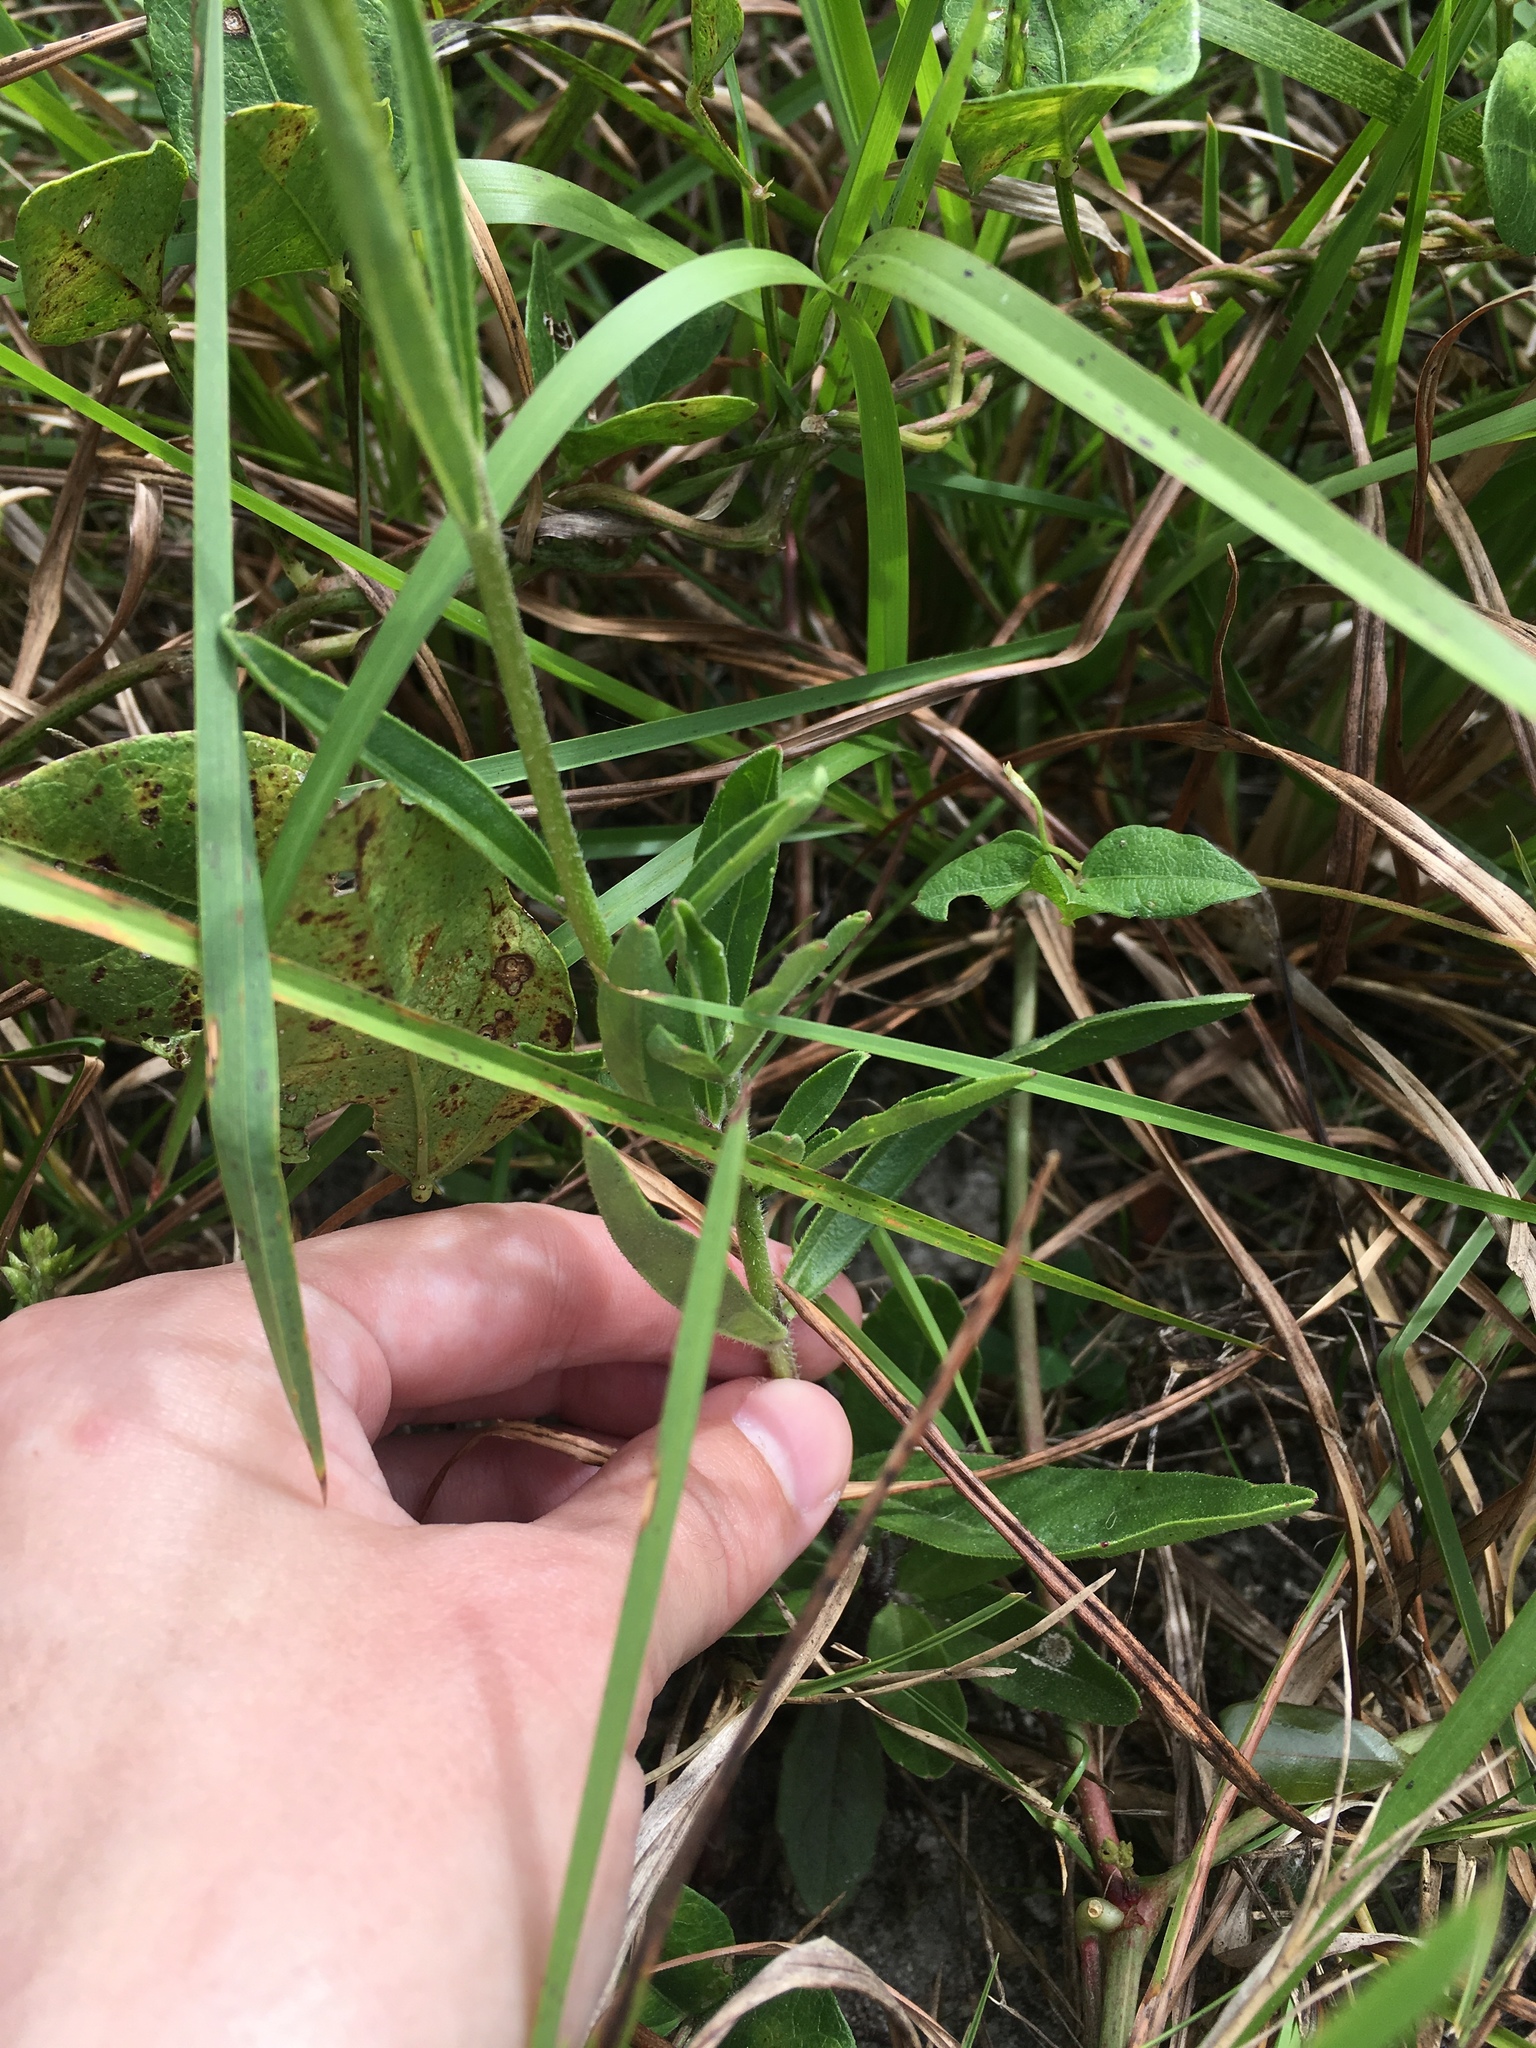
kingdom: Plantae
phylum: Tracheophyta
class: Magnoliopsida
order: Lamiales
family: Orobanchaceae
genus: Buchnera
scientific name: Buchnera floridana
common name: Florida bluehearts
